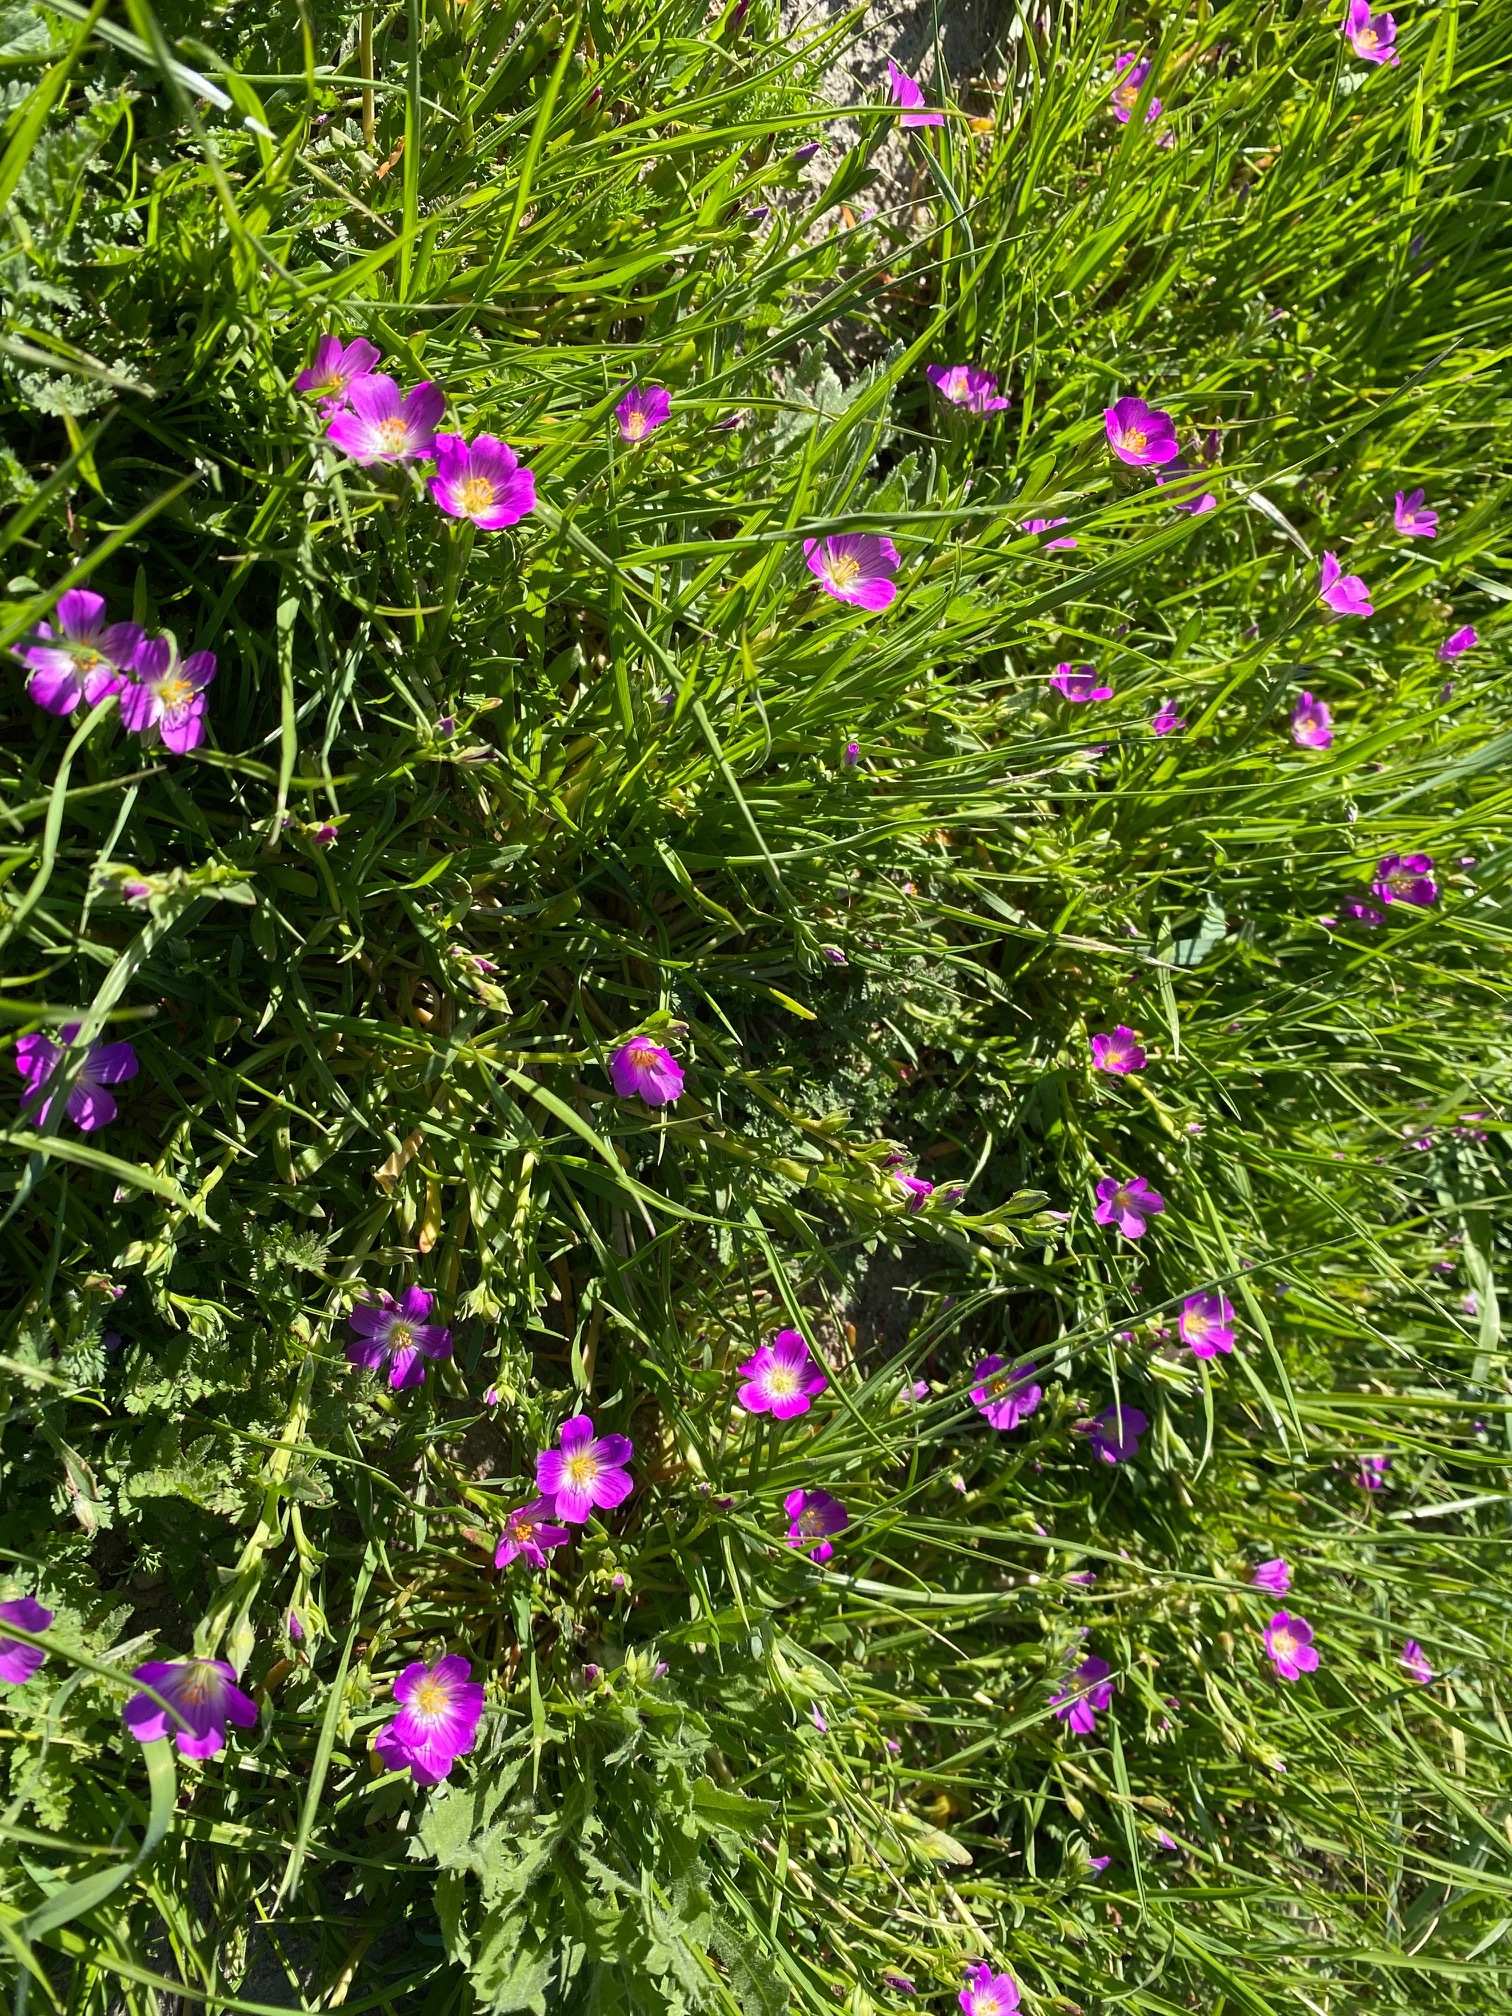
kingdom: Plantae
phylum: Tracheophyta
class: Magnoliopsida
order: Caryophyllales
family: Montiaceae
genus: Calandrinia
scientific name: Calandrinia menziesii
